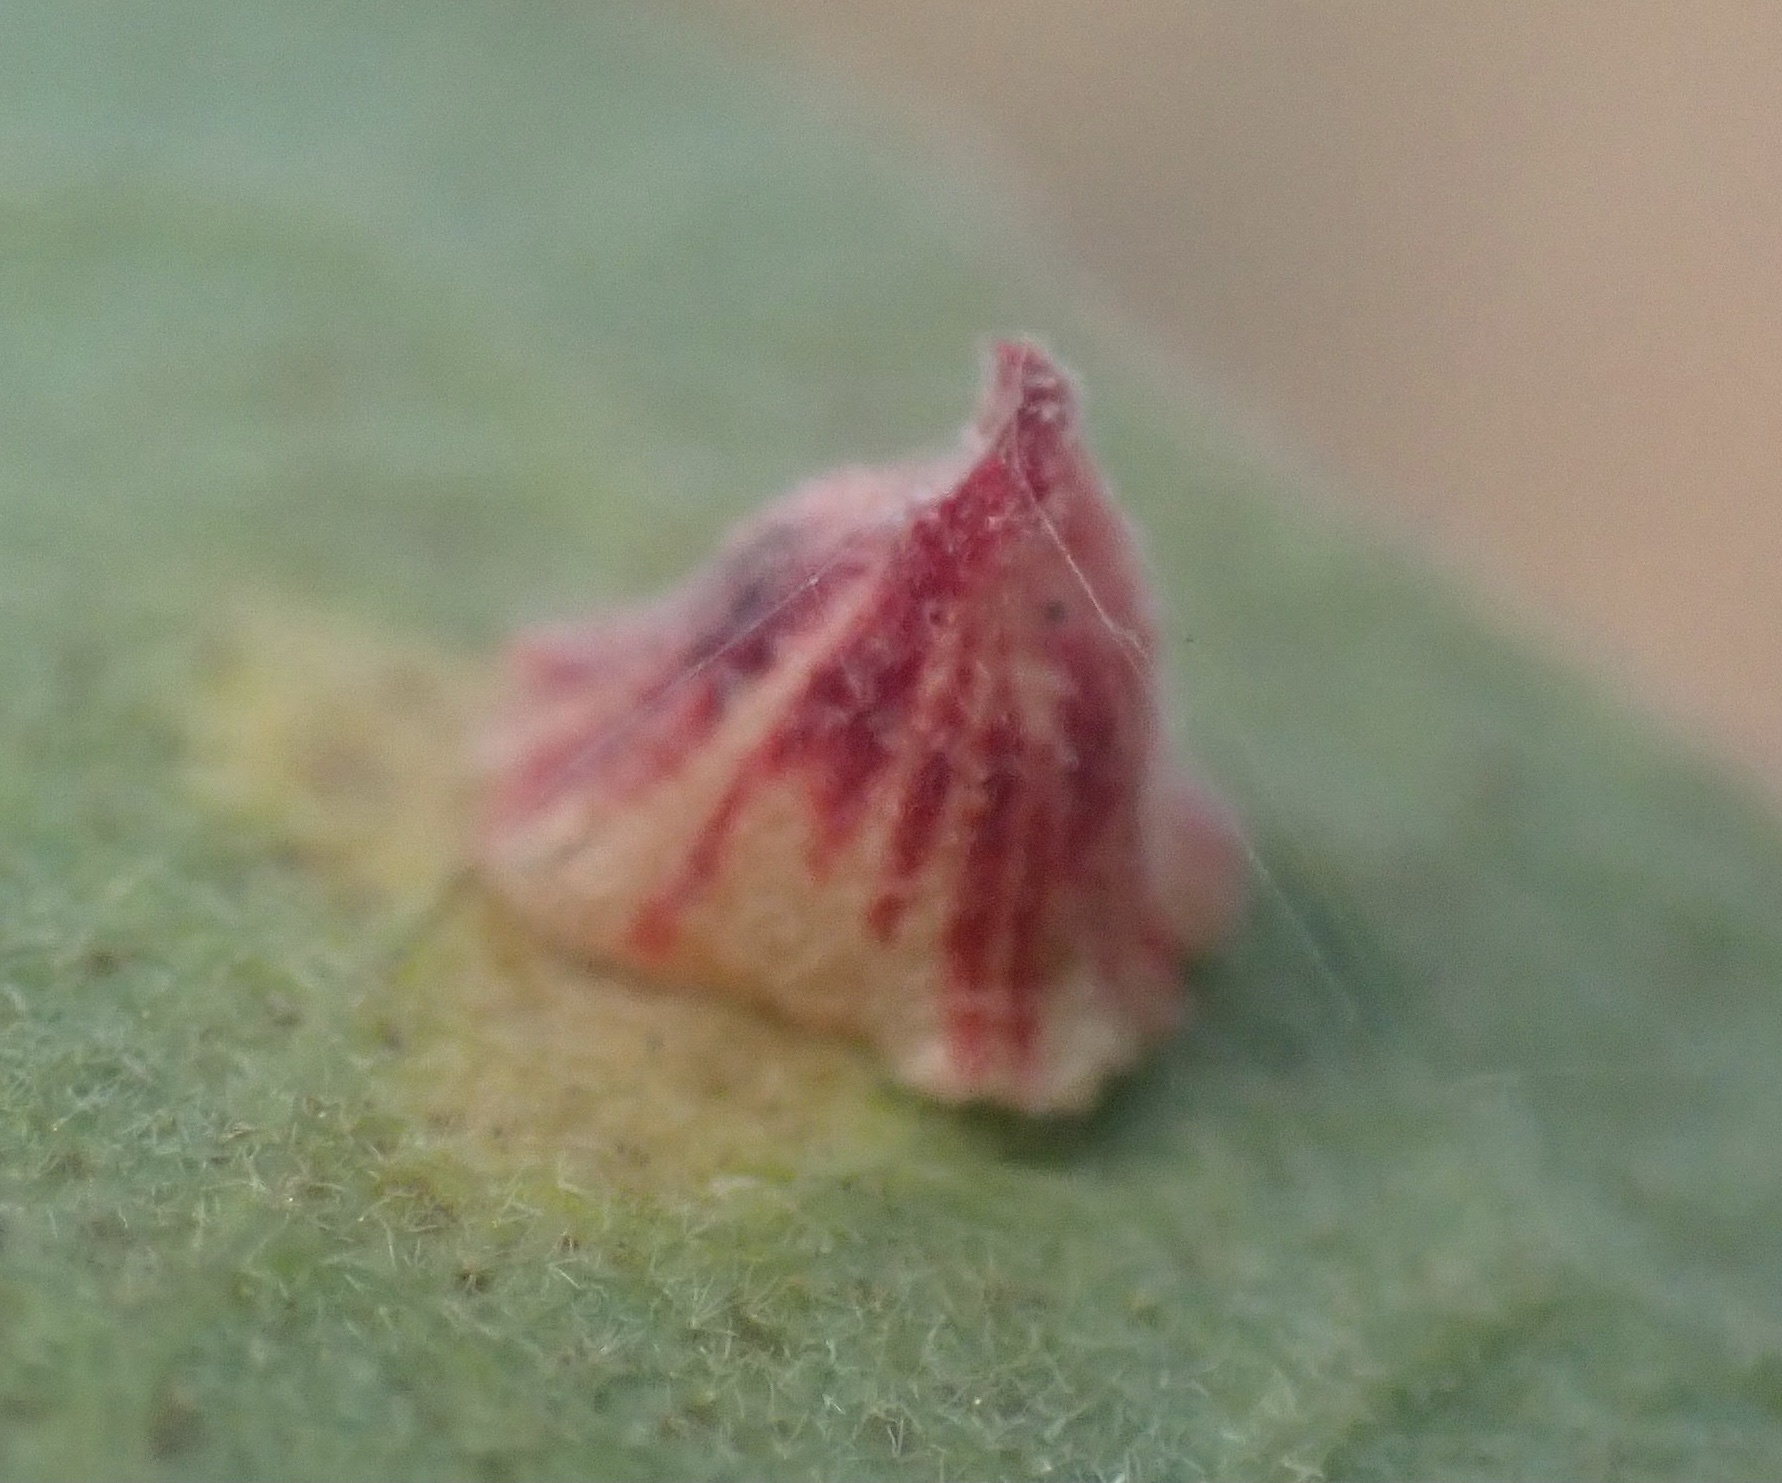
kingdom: Animalia
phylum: Arthropoda
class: Insecta
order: Hymenoptera
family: Cynipidae
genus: Andricus
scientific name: Andricus
